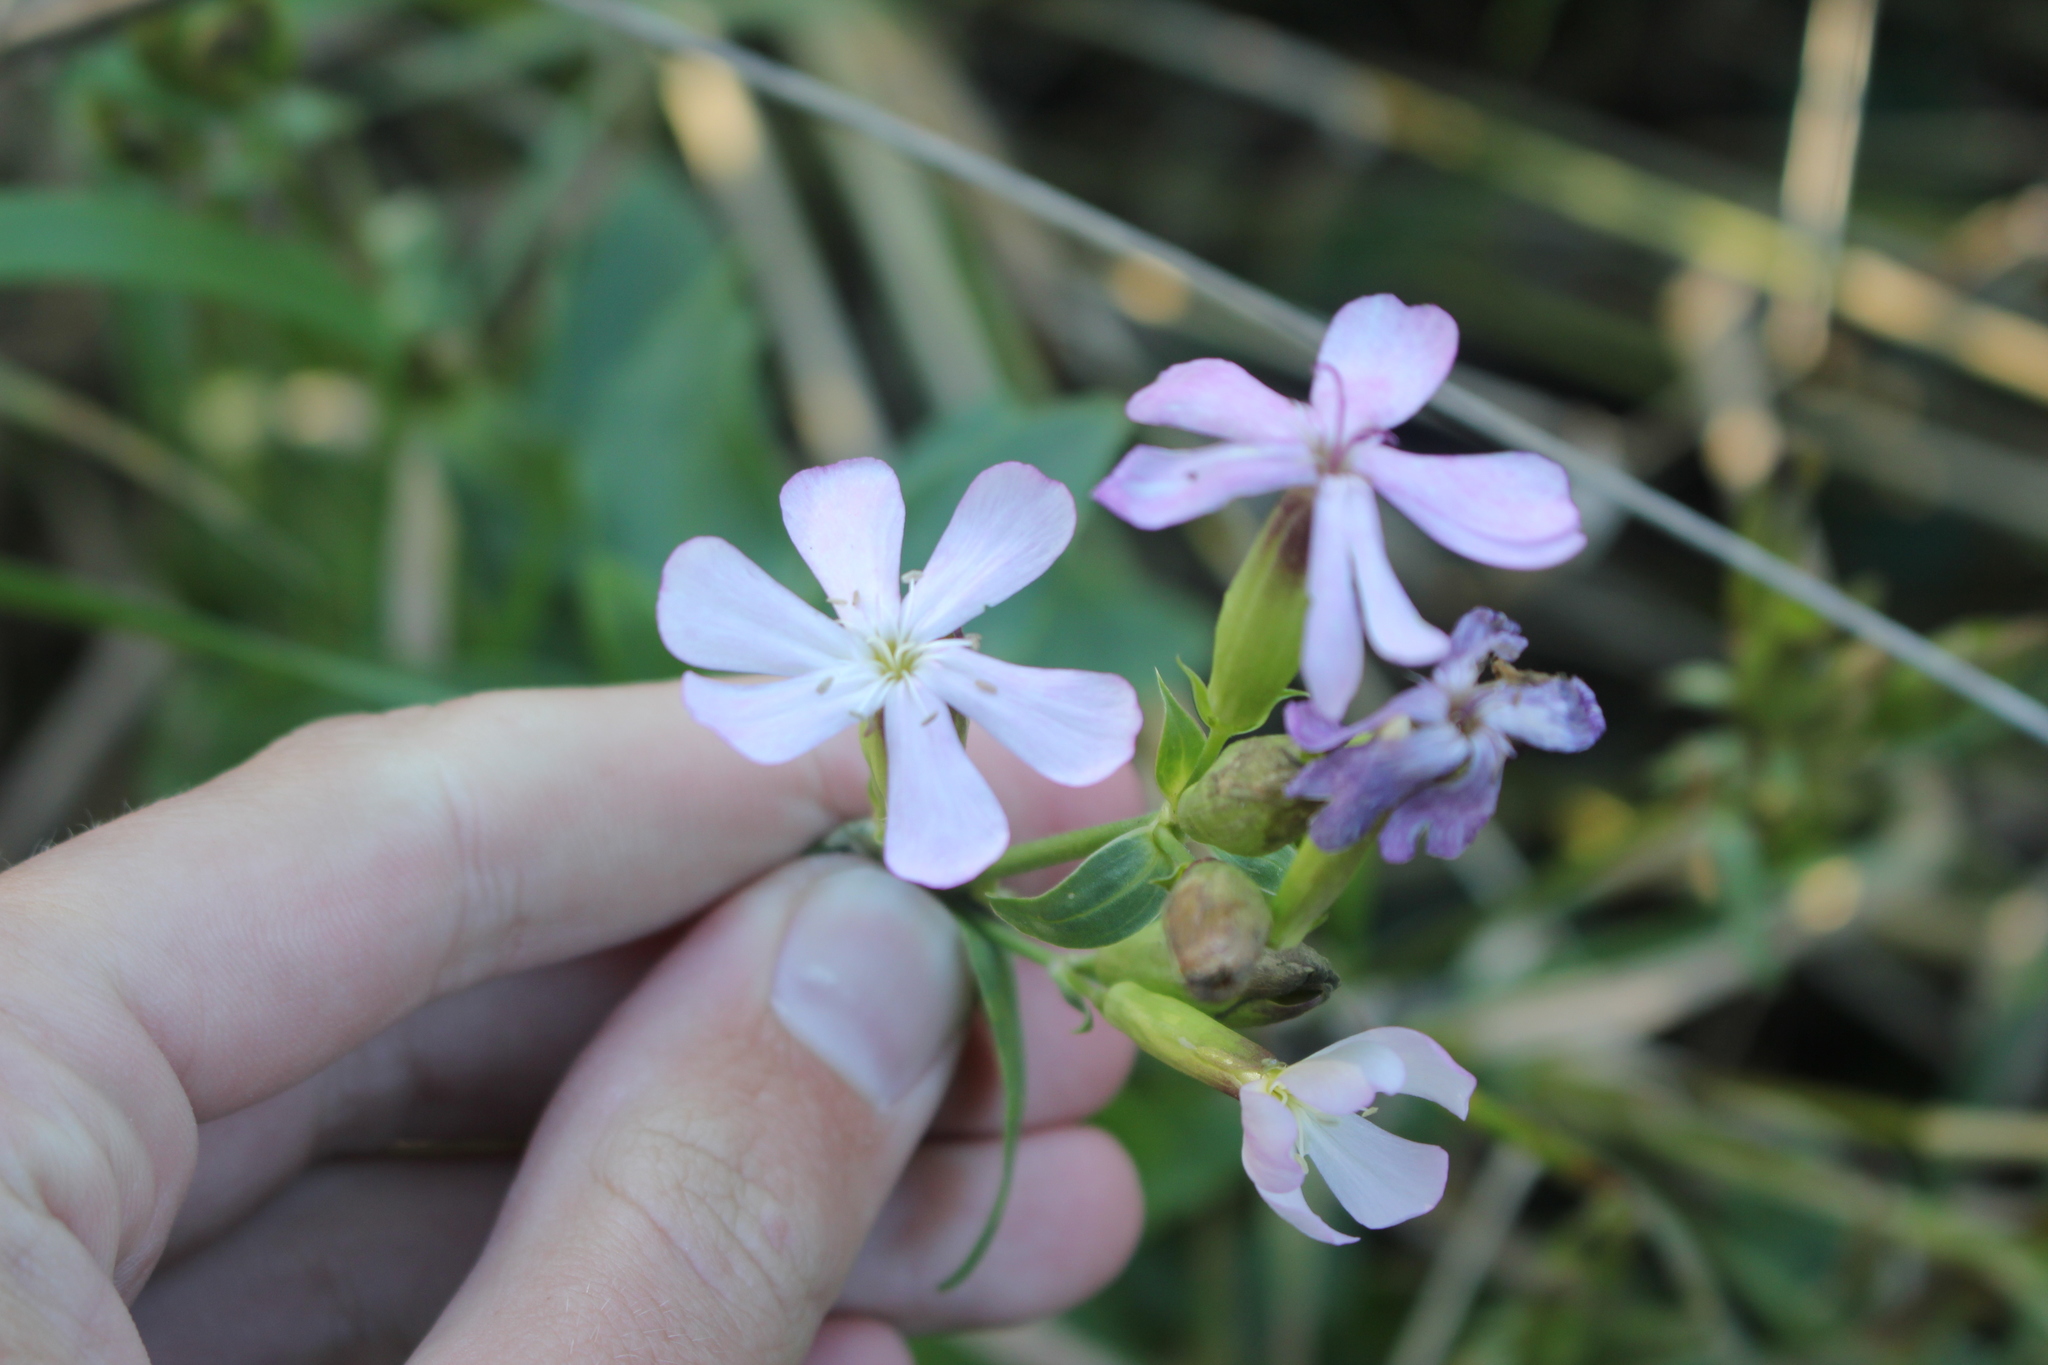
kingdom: Plantae
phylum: Tracheophyta
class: Magnoliopsida
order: Caryophyllales
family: Caryophyllaceae
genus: Saponaria
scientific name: Saponaria officinalis
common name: Soapwort
